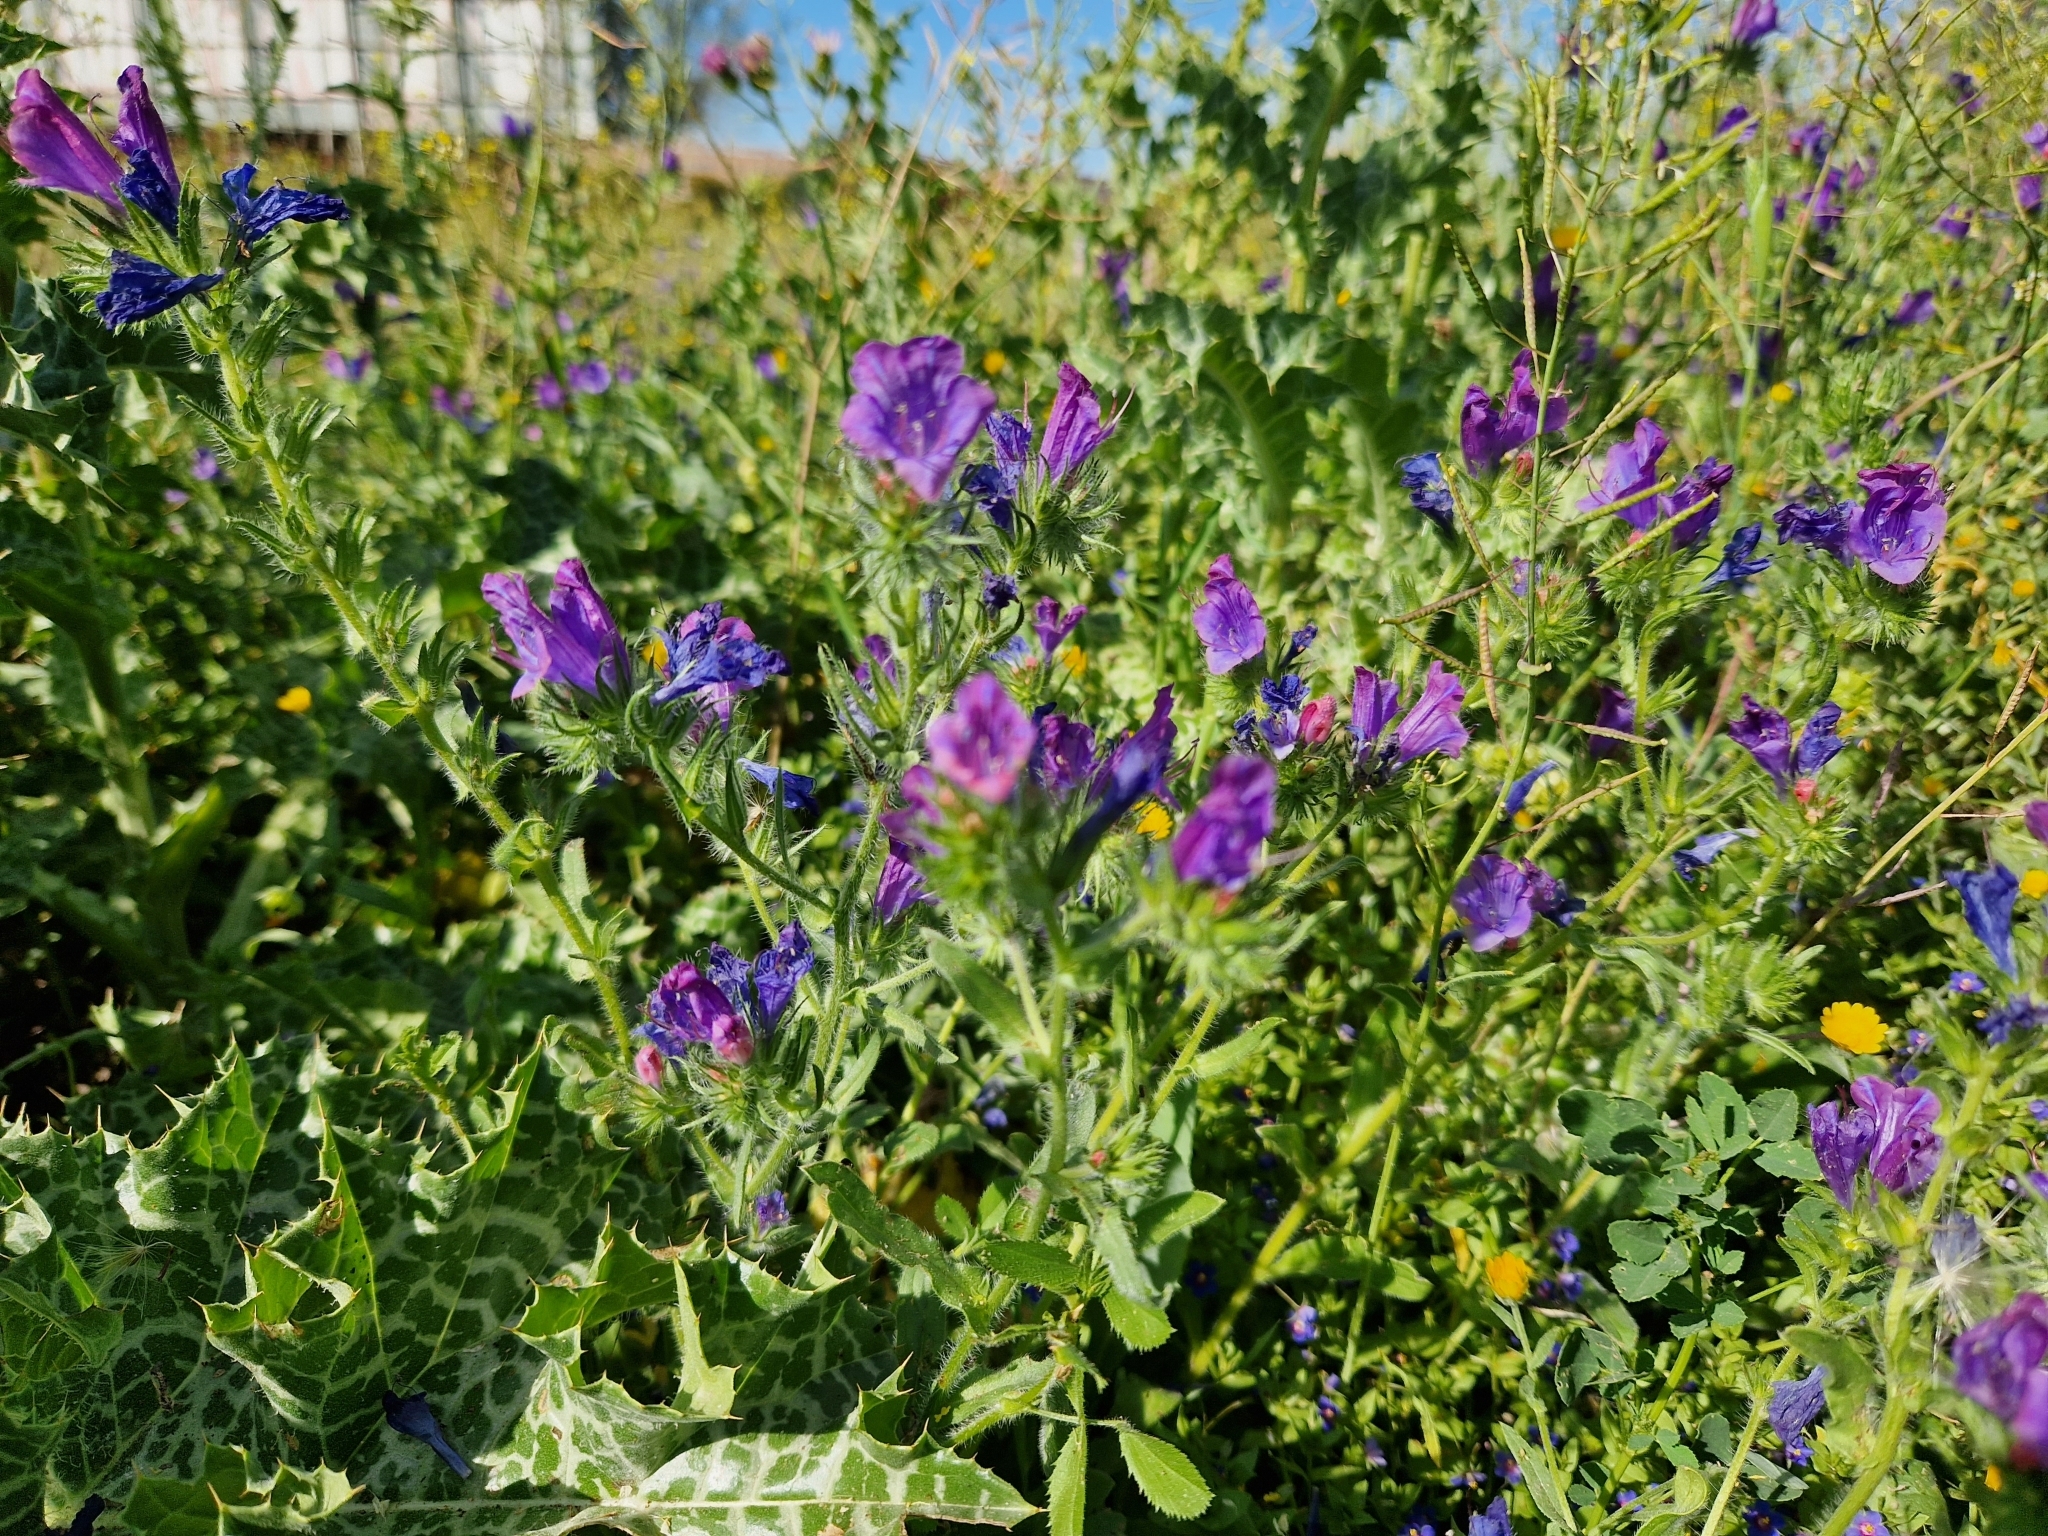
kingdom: Plantae
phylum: Tracheophyta
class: Magnoliopsida
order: Boraginales
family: Boraginaceae
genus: Echium
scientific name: Echium plantagineum
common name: Purple viper's-bugloss
